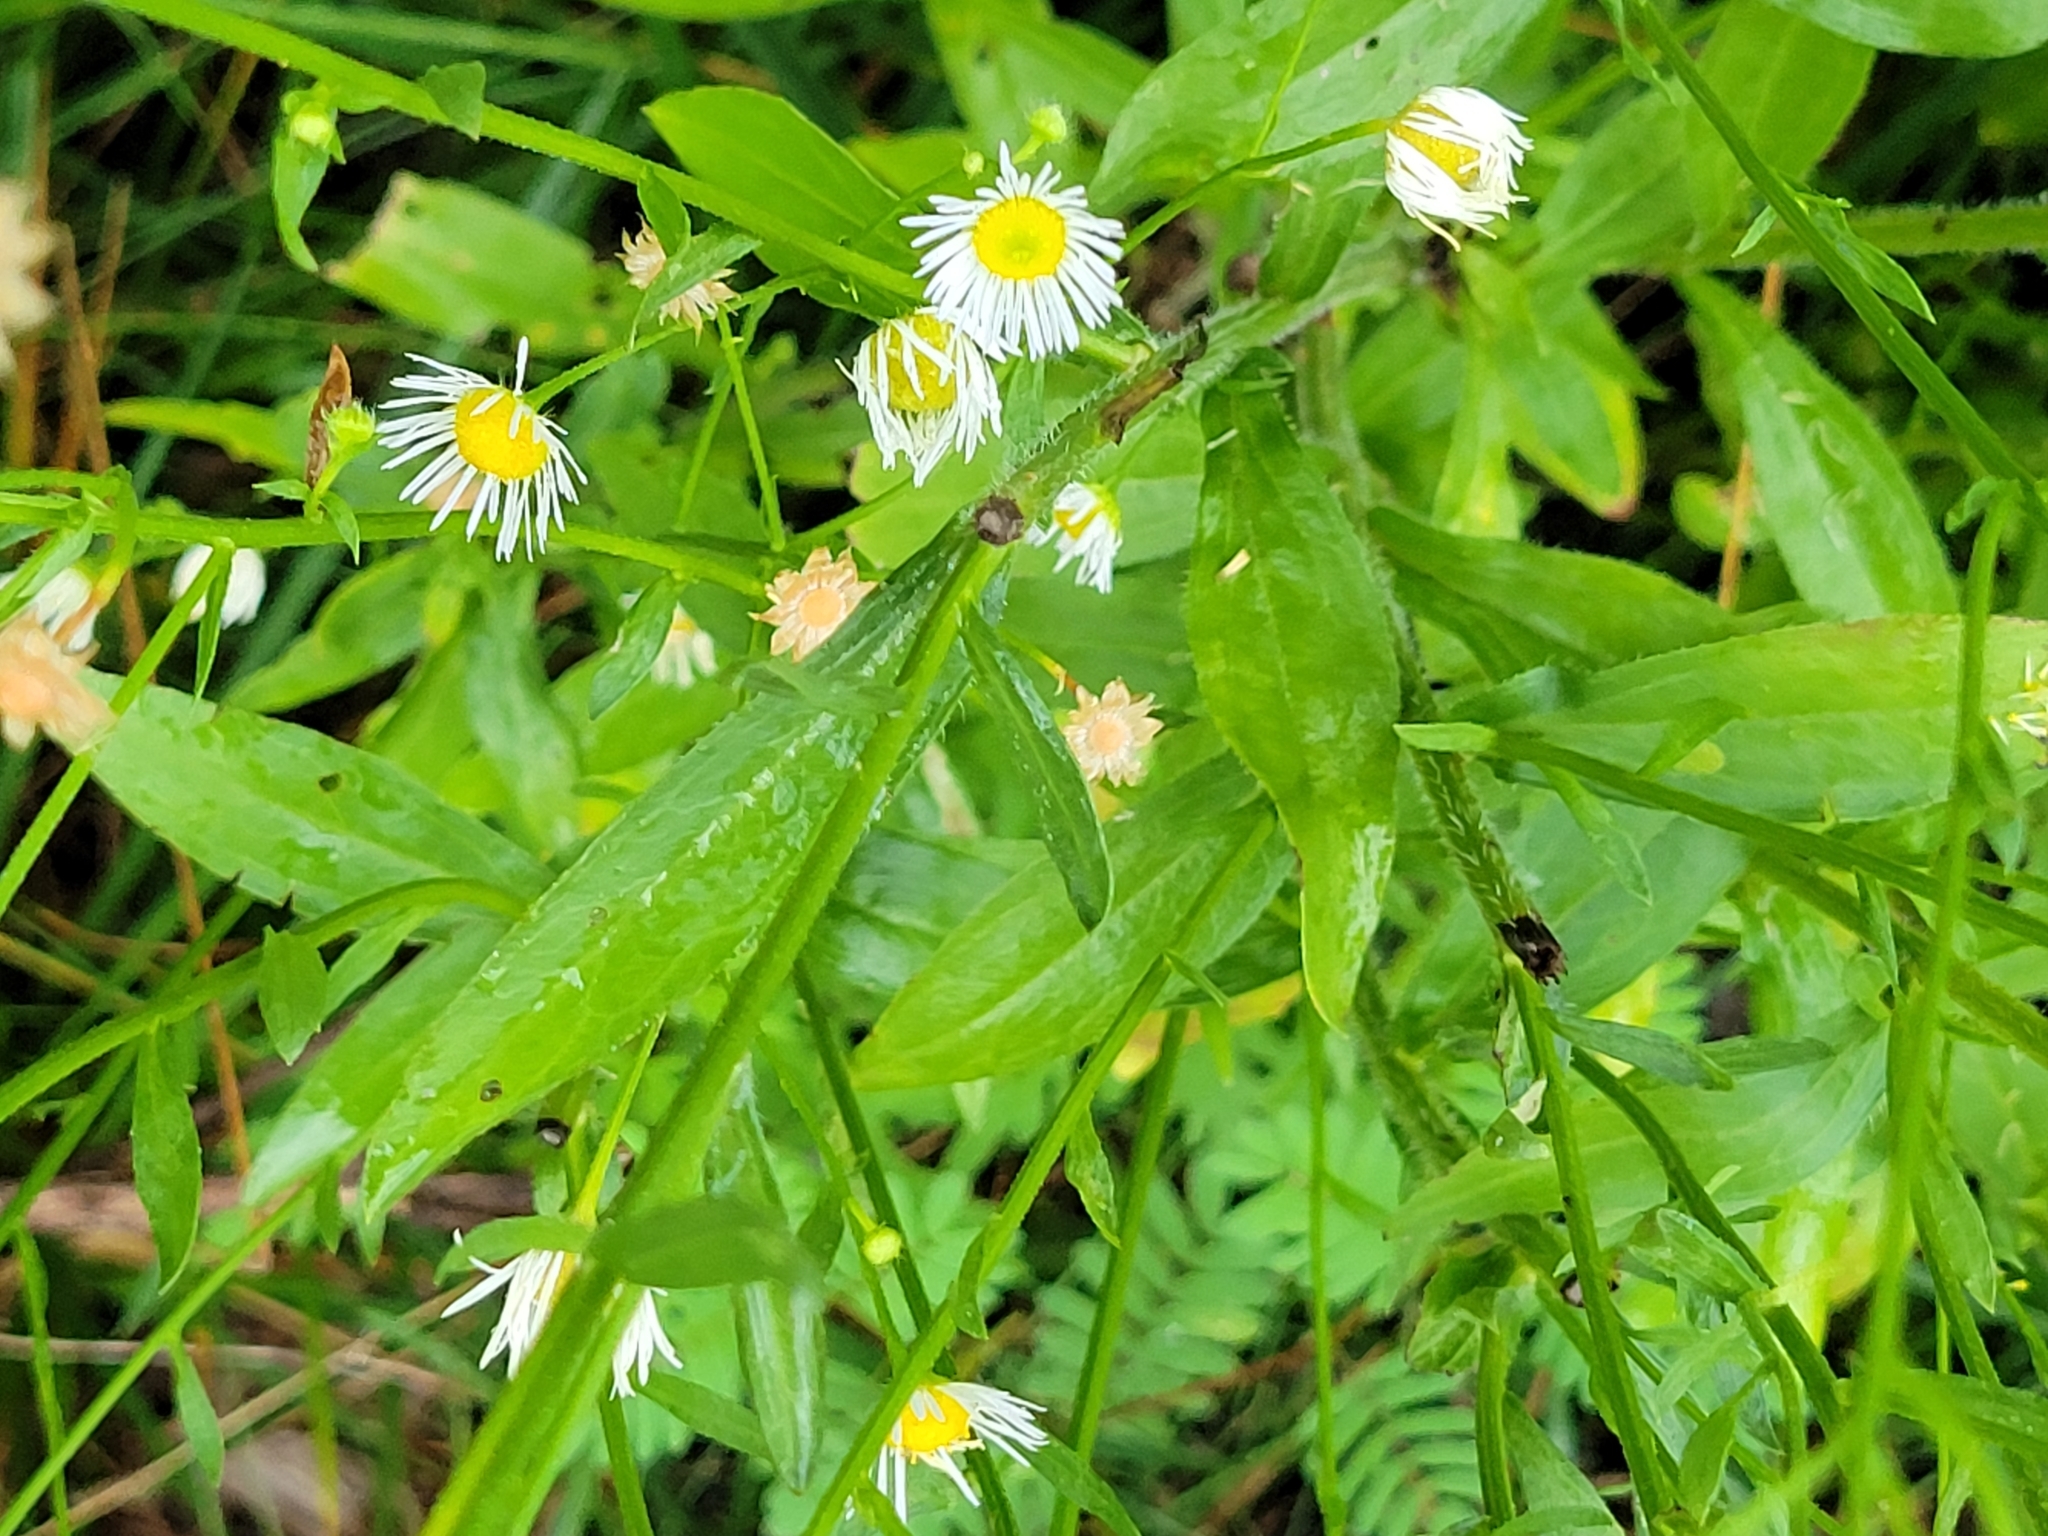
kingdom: Plantae
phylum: Tracheophyta
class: Magnoliopsida
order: Asterales
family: Asteraceae
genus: Erigeron
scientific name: Erigeron strigosus
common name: Common eastern fleabane
